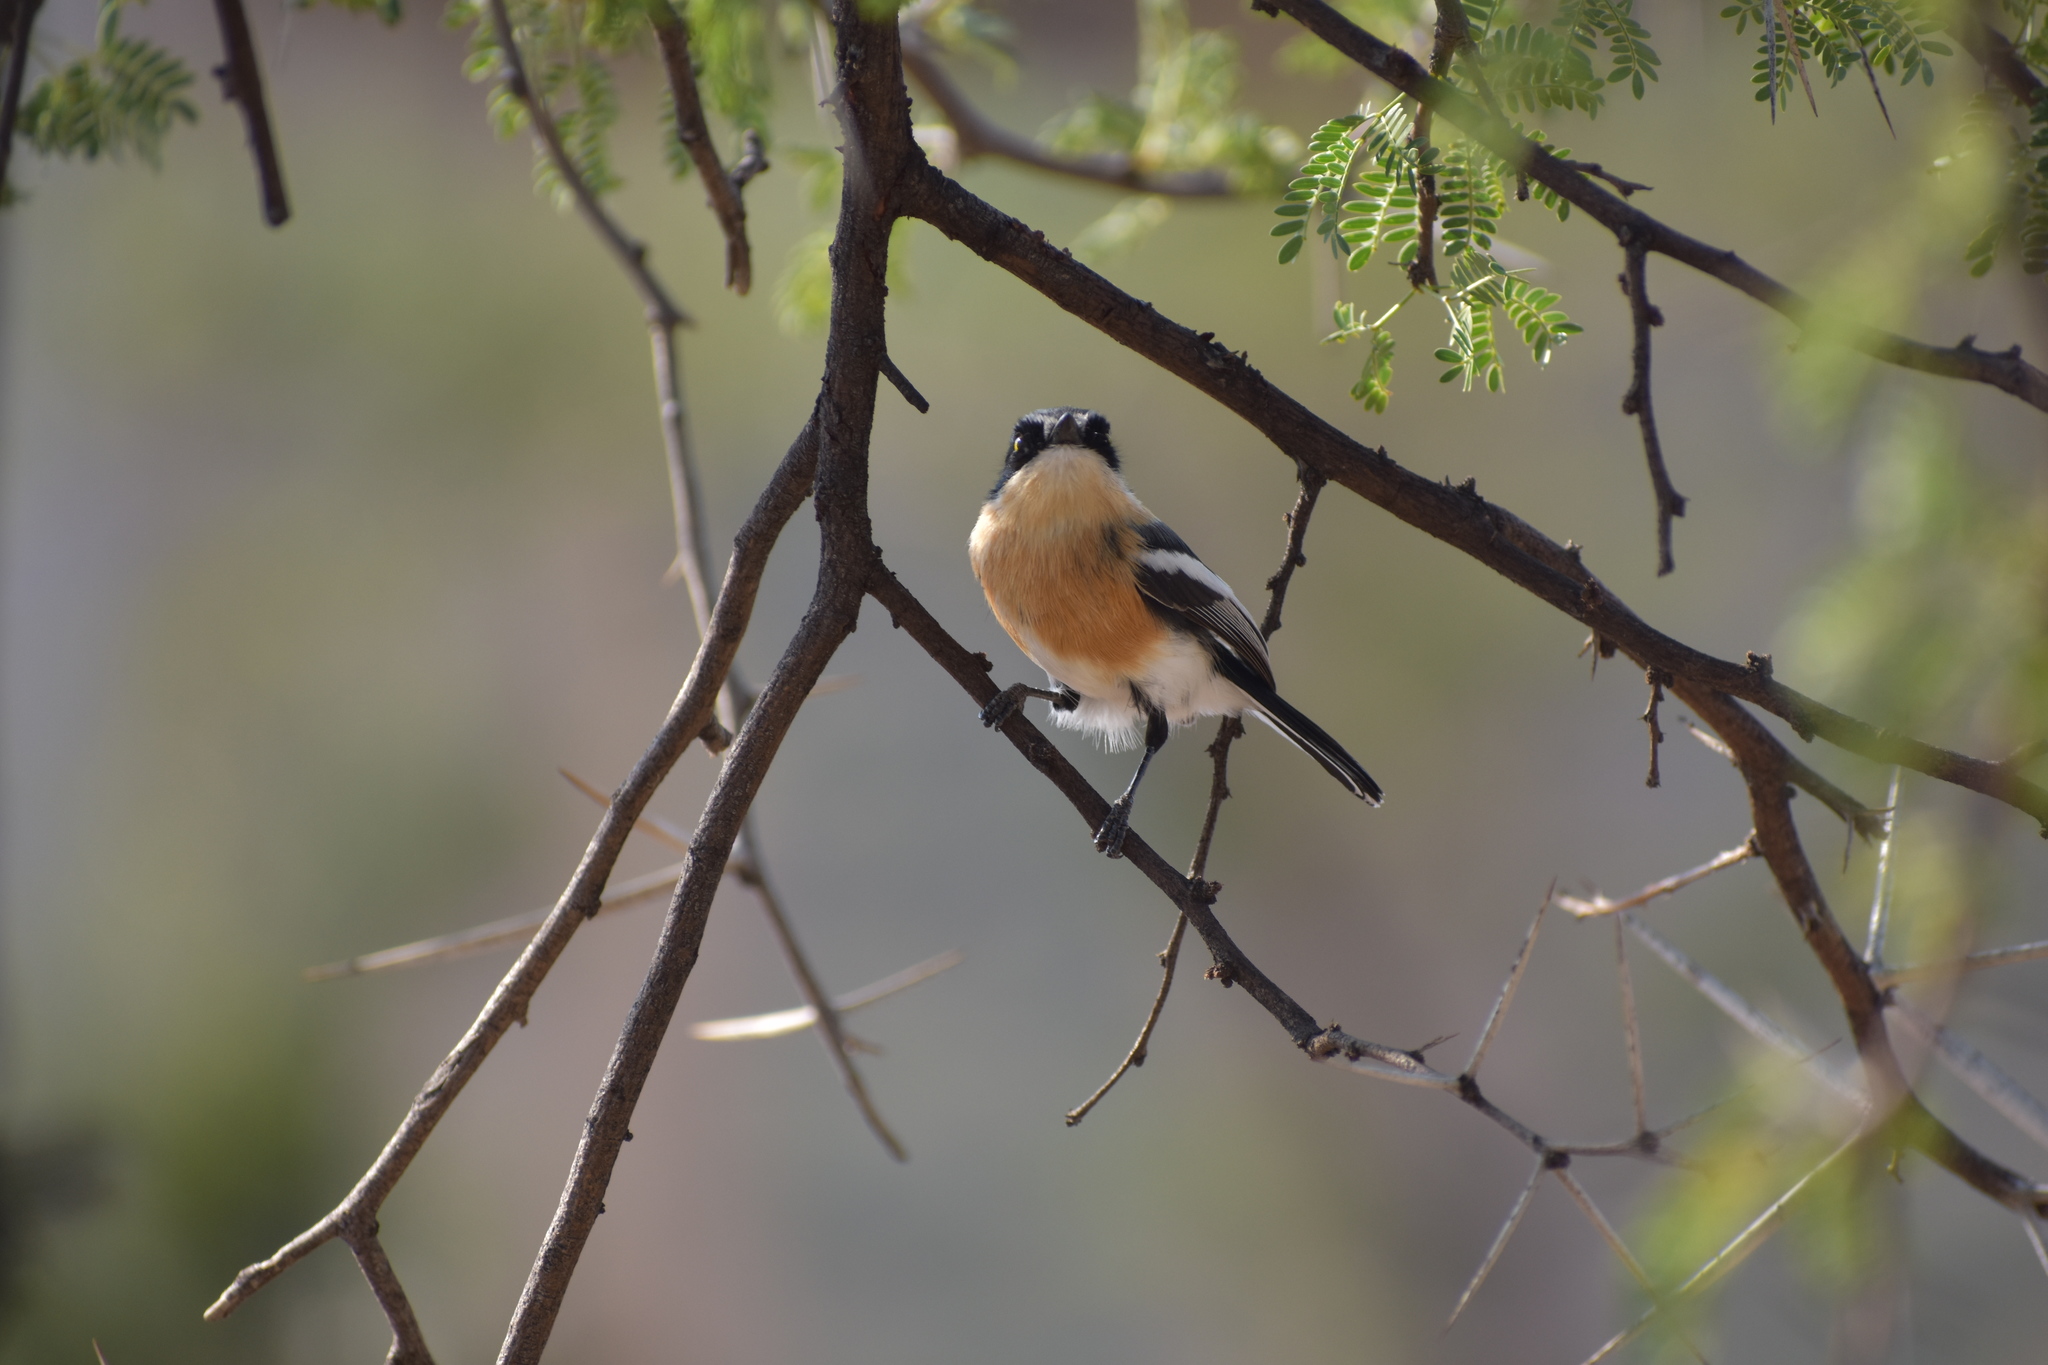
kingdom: Animalia
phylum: Chordata
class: Aves
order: Passeriformes
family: Platysteiridae
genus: Batis
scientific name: Batis pririt
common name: Pririt batis
